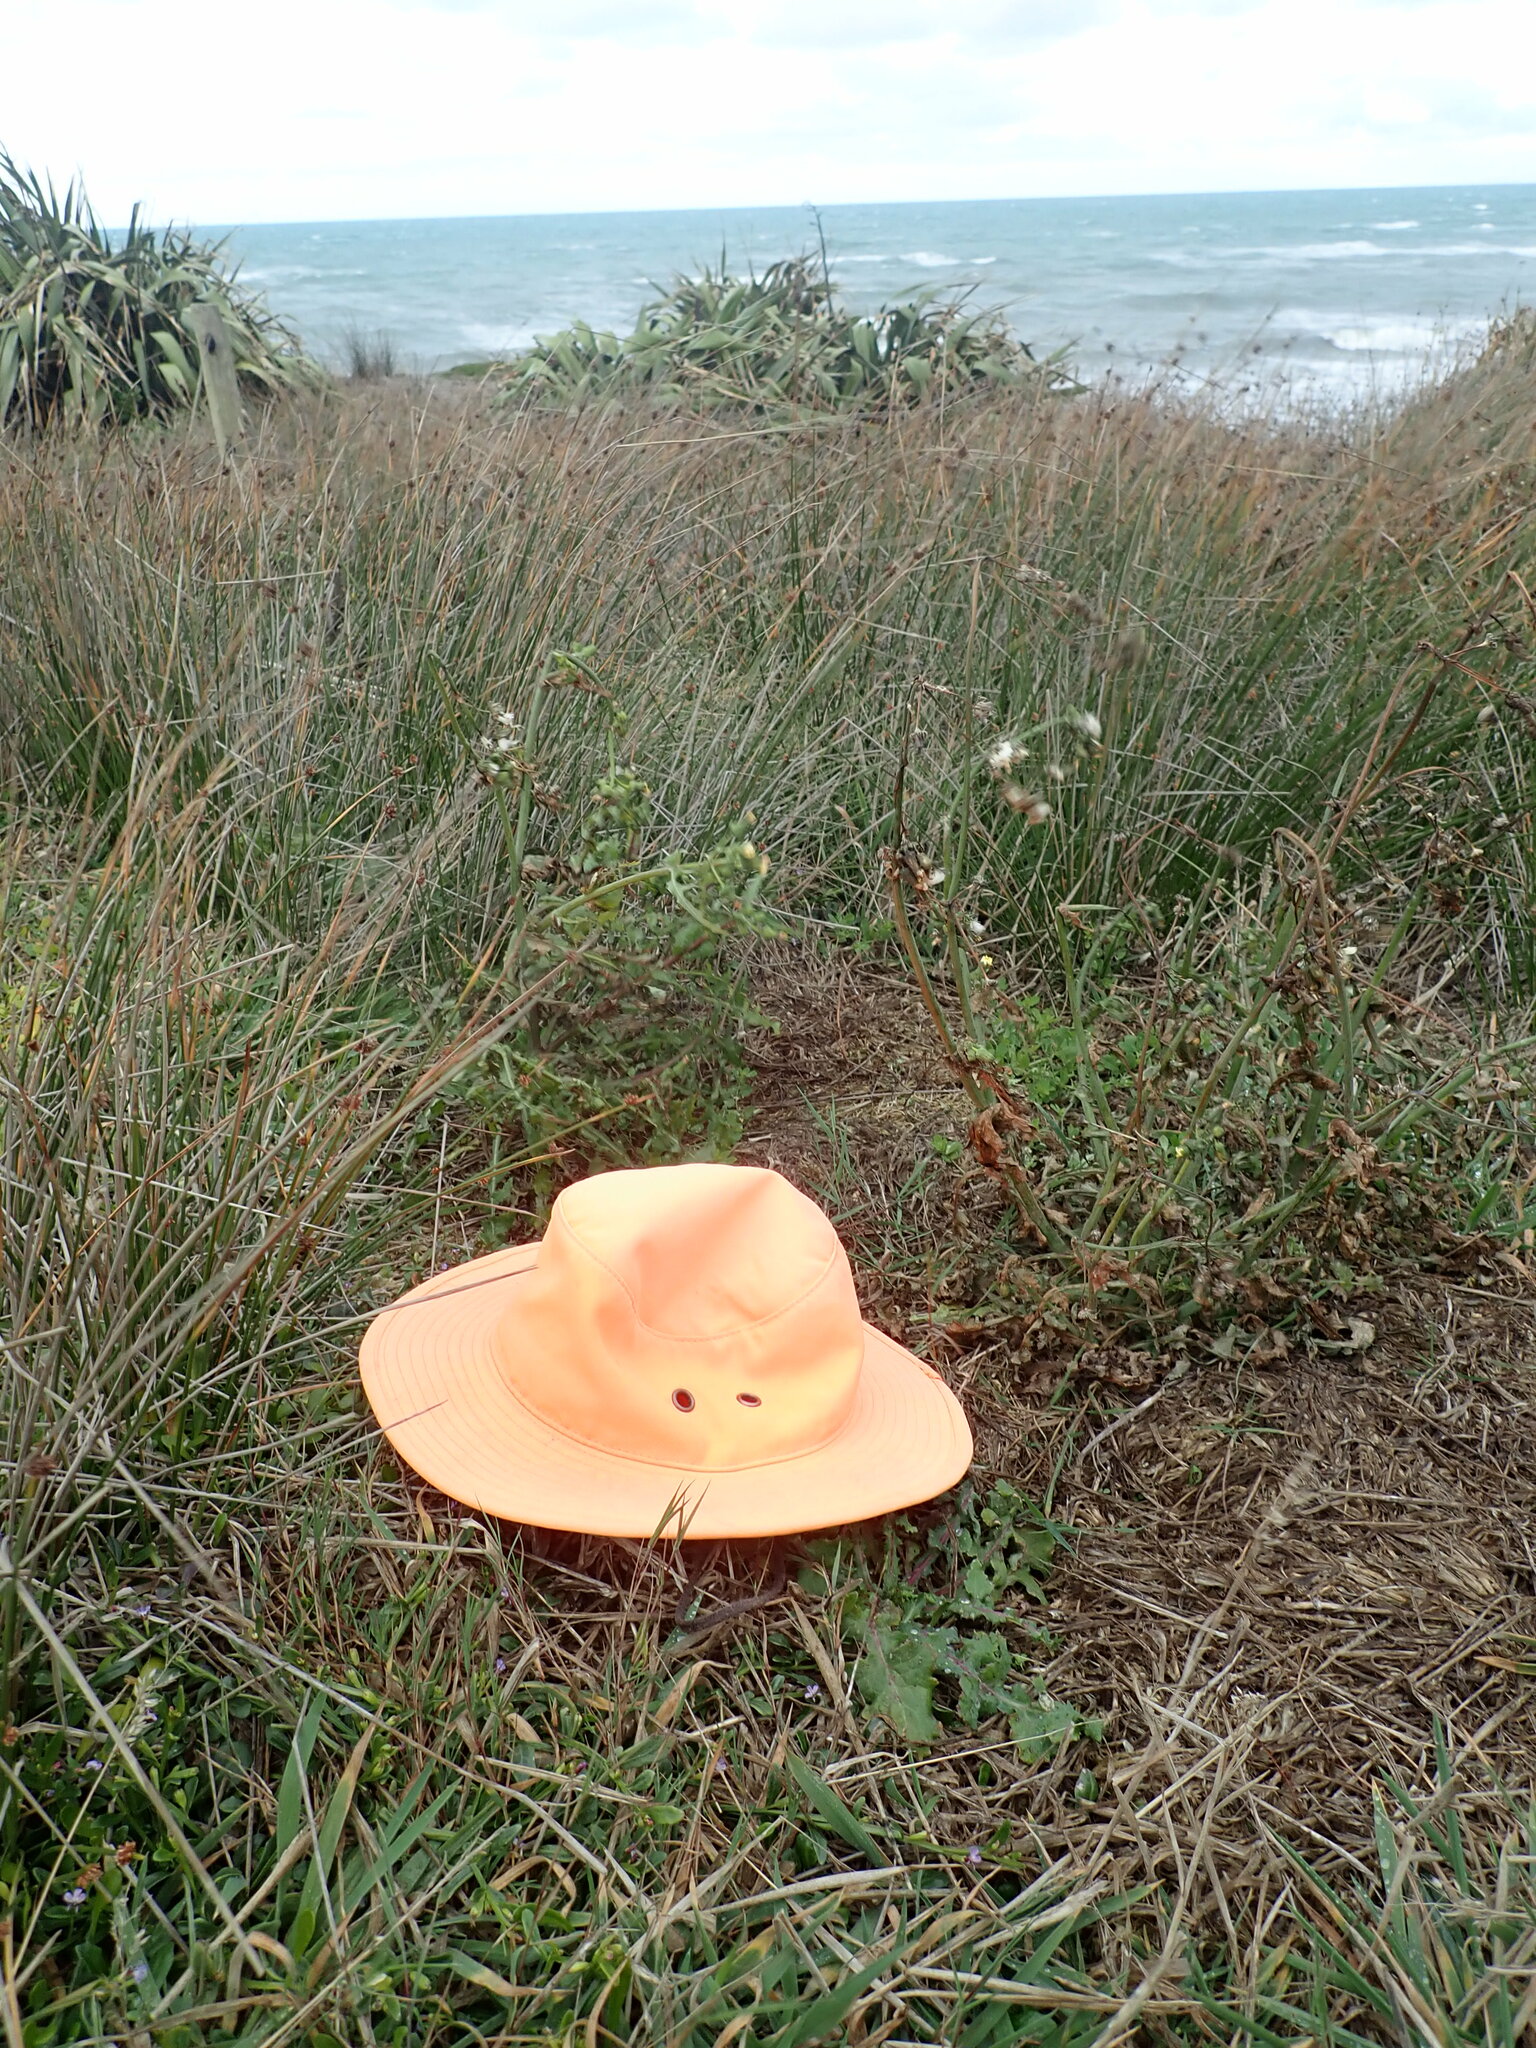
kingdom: Plantae
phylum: Tracheophyta
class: Magnoliopsida
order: Asterales
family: Campanulaceae
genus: Lobelia
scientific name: Lobelia anceps
